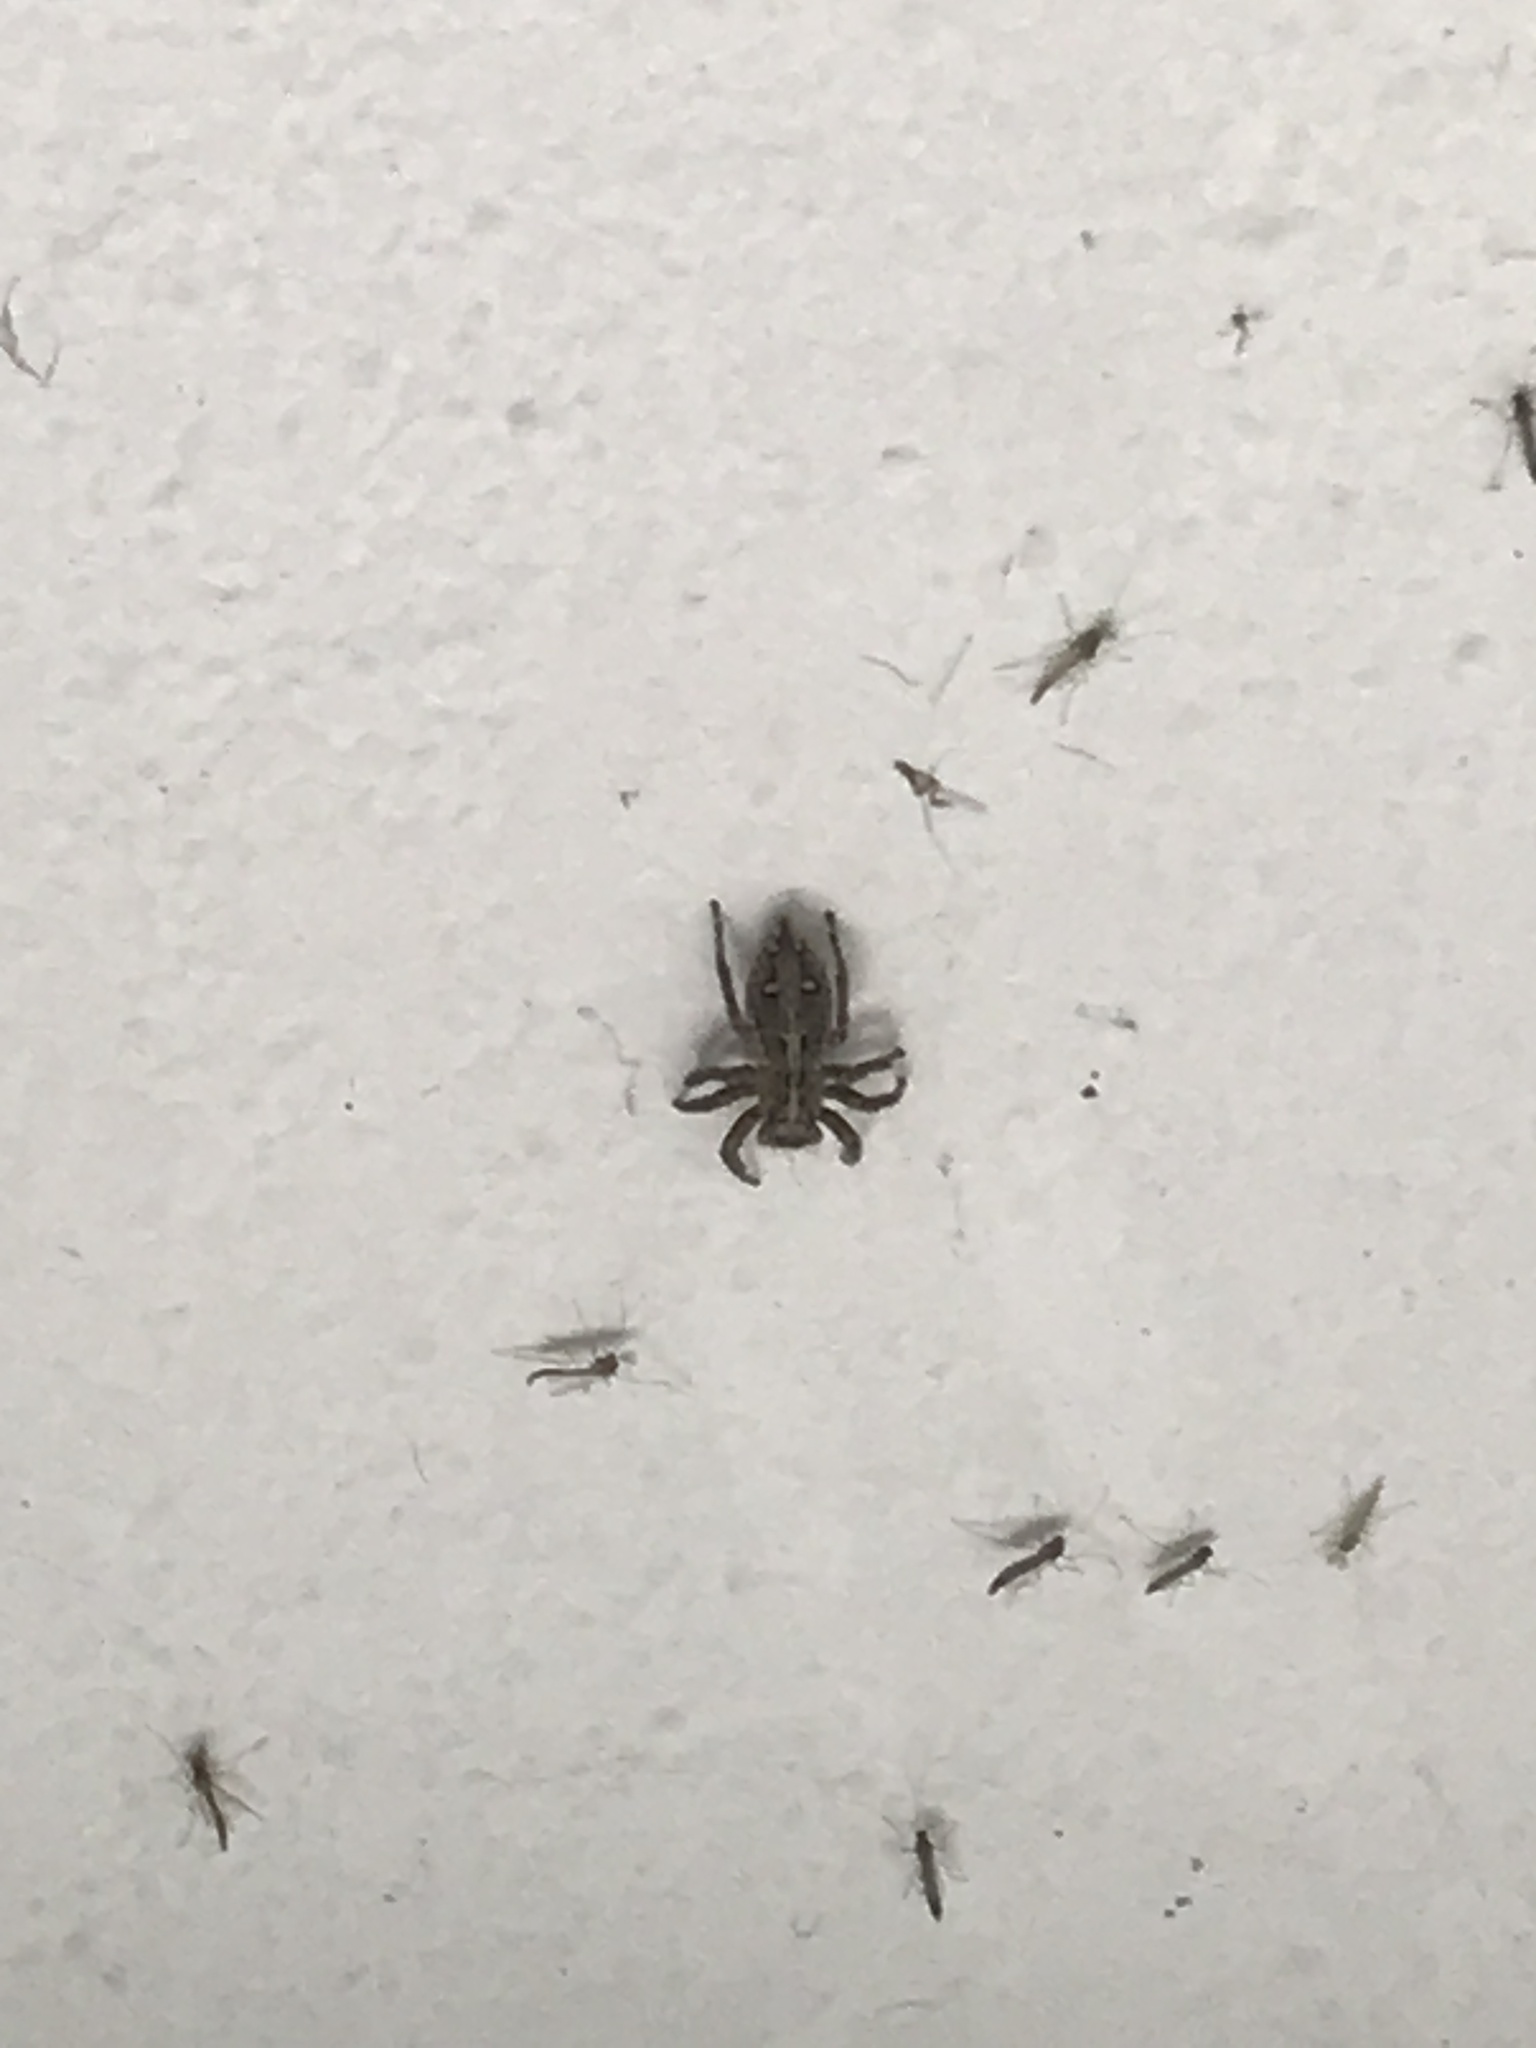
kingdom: Animalia
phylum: Arthropoda
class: Arachnida
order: Araneae
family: Salticidae
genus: Plexippus
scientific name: Plexippus paykulli
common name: Pantropical jumper
